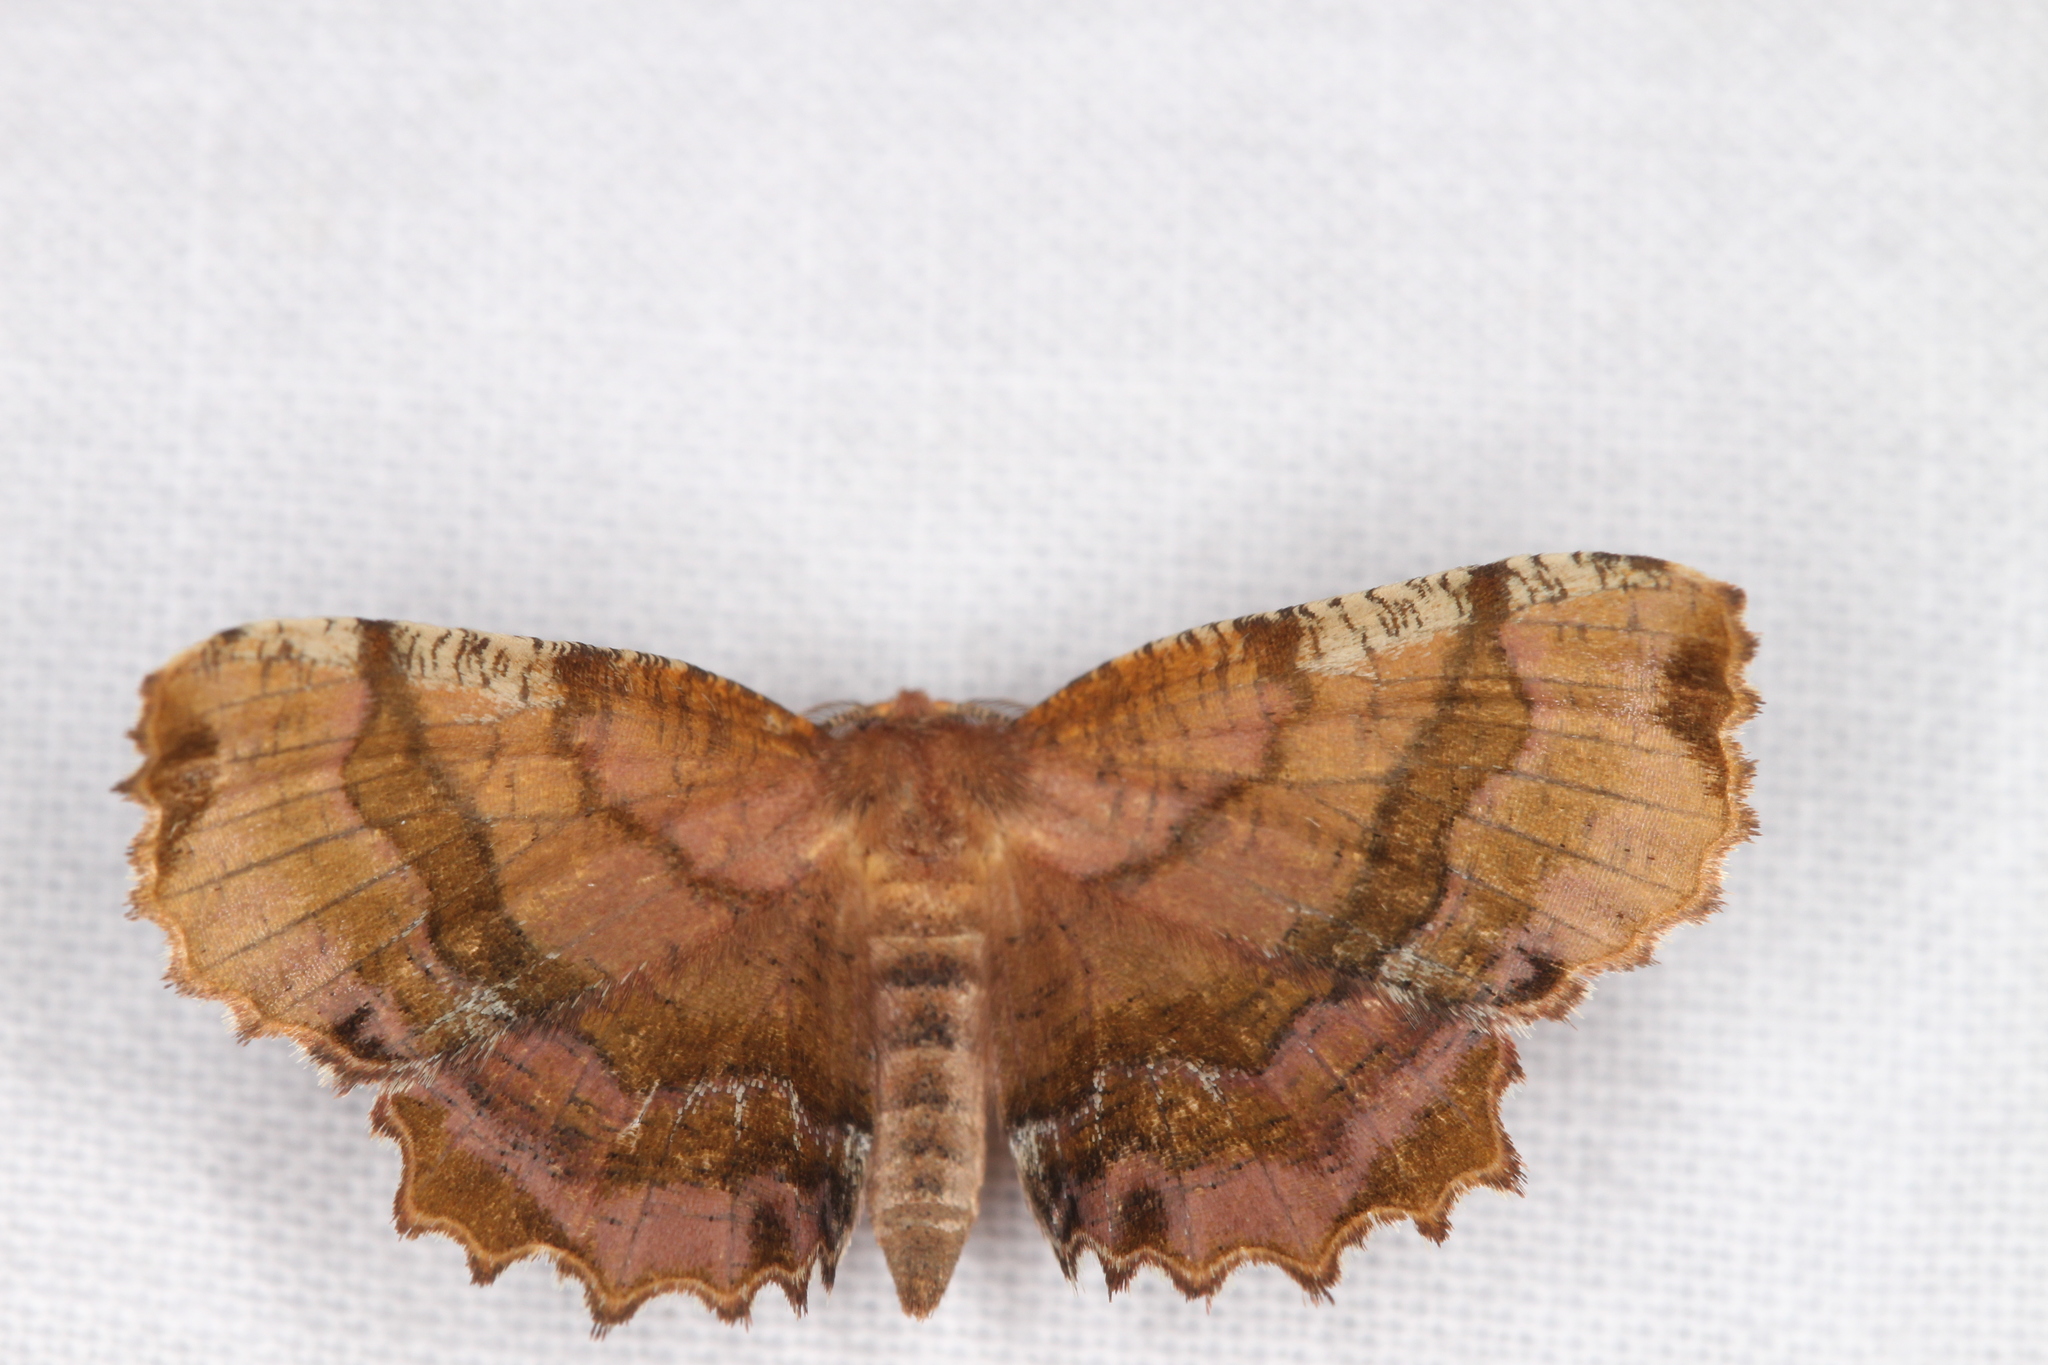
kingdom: Animalia
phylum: Arthropoda
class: Insecta
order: Lepidoptera
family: Geometridae
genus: Cepphis
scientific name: Cepphis armataria
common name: Scallop moth
